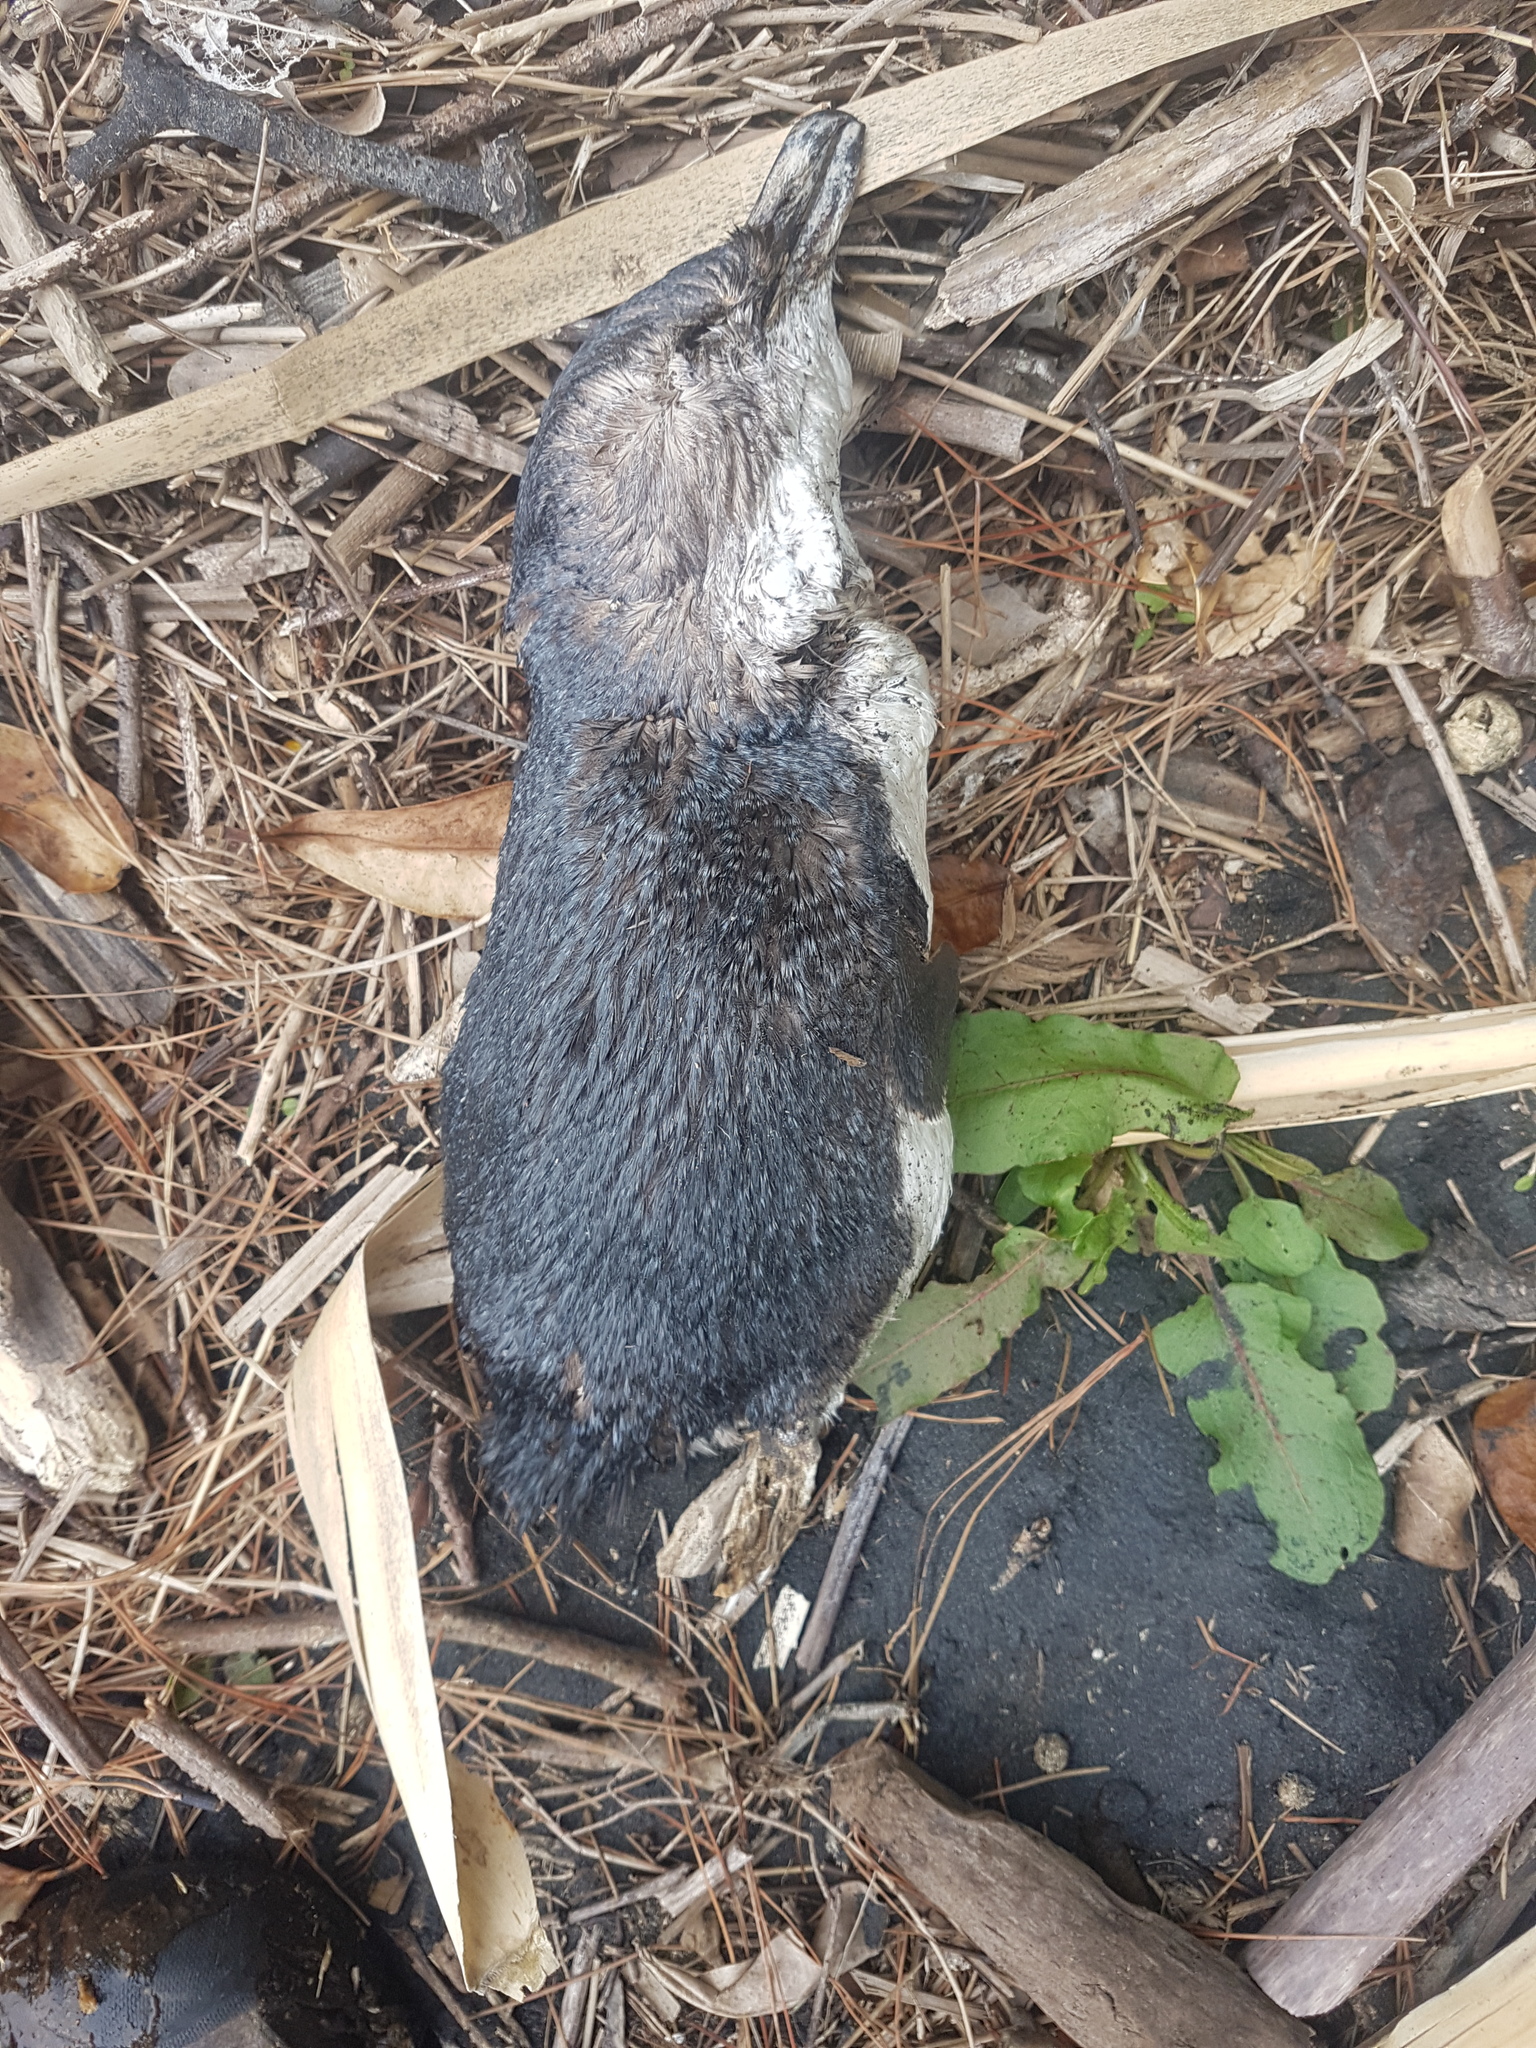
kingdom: Animalia
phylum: Chordata
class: Aves
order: Sphenisciformes
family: Spheniscidae
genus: Eudyptula
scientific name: Eudyptula minor
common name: Little penguin
